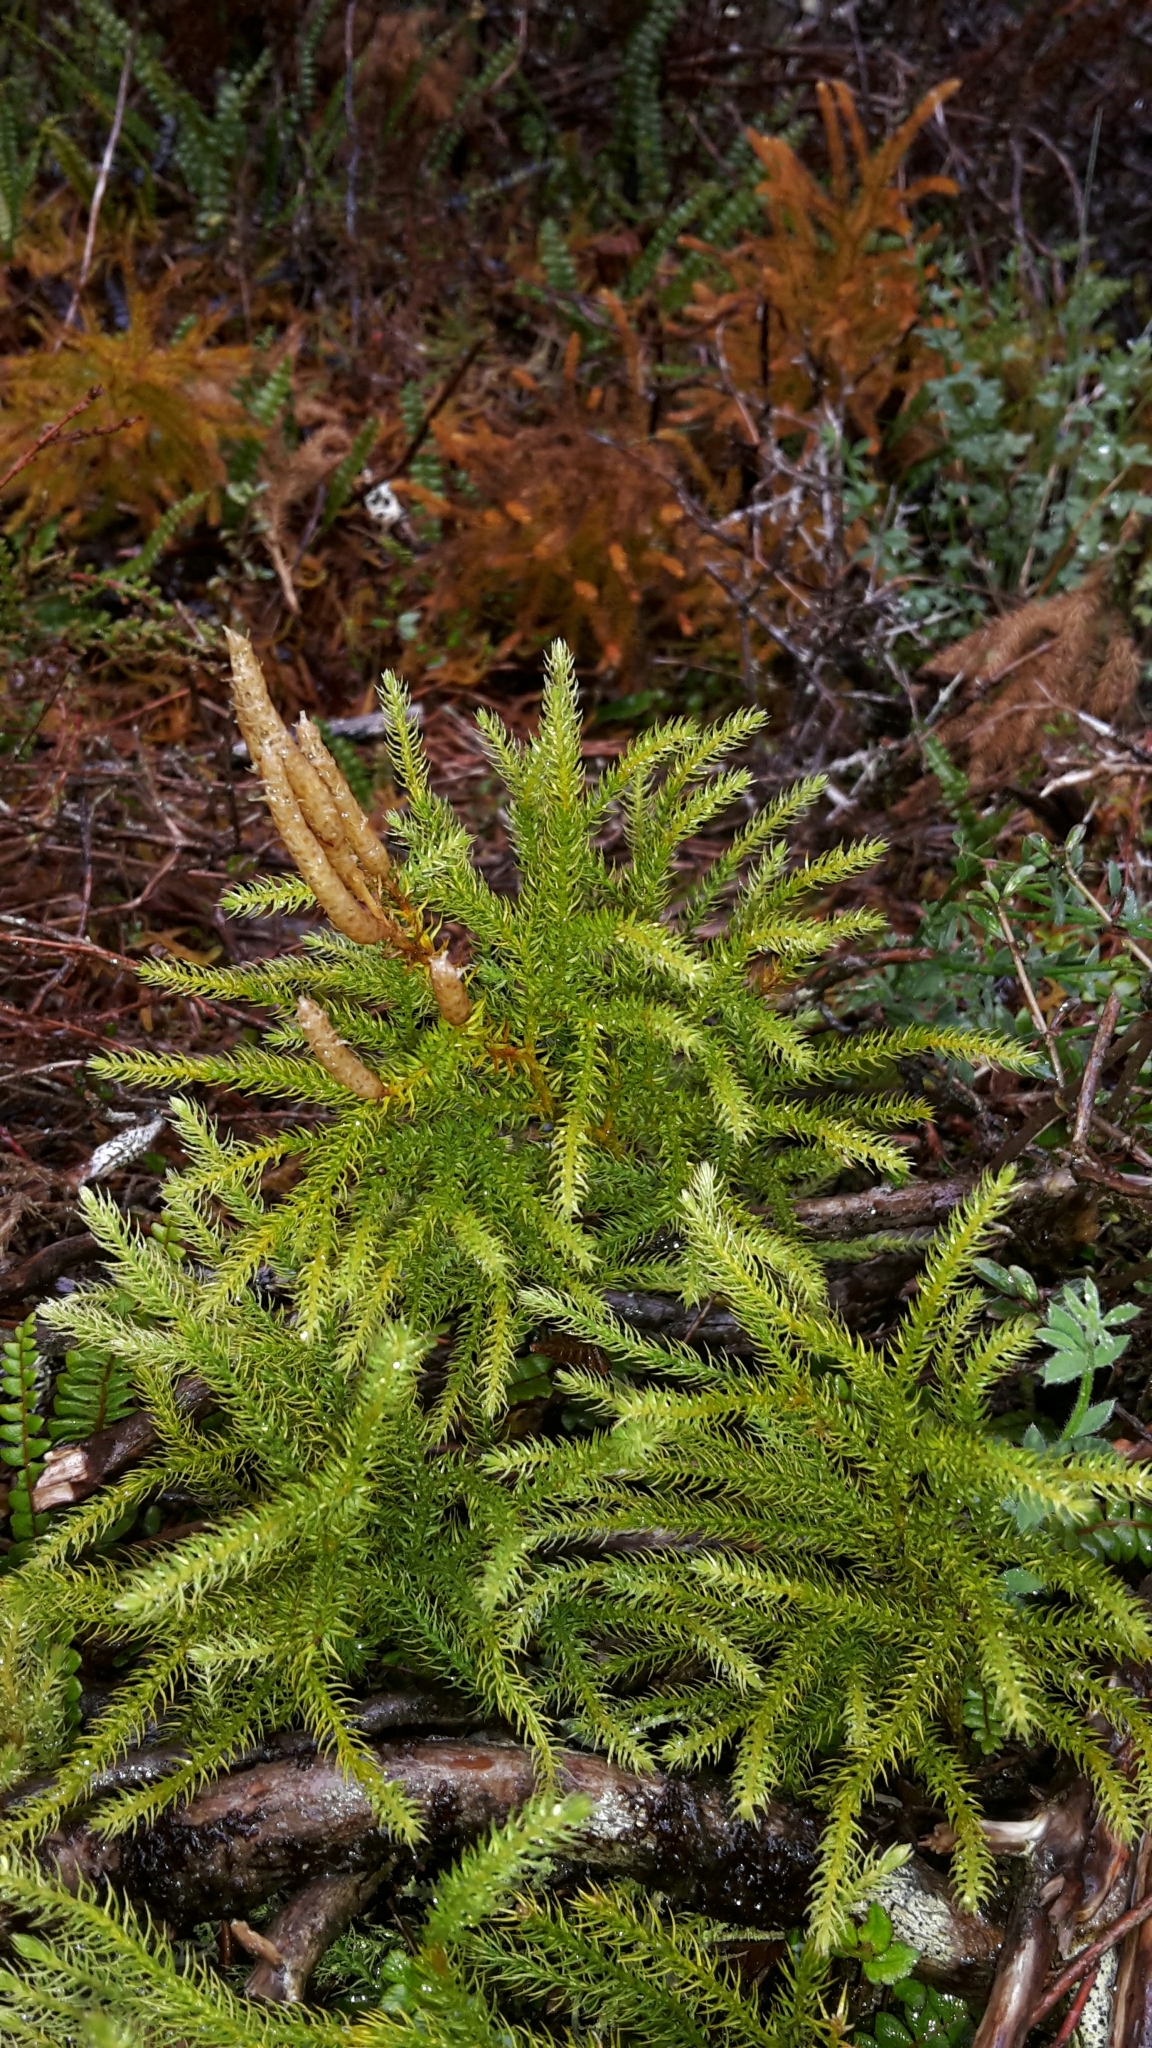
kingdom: Plantae
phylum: Tracheophyta
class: Lycopodiopsida
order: Lycopodiales
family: Lycopodiaceae
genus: Austrolycopodium
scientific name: Austrolycopodium fastigiatum
